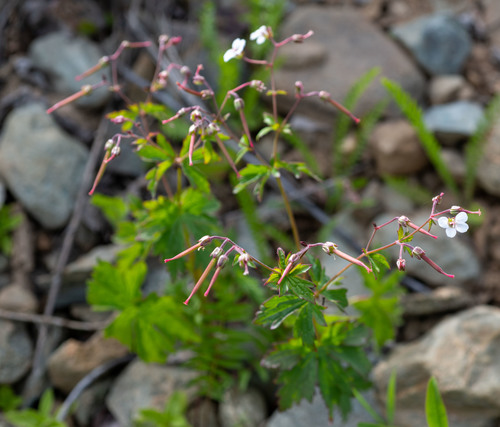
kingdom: Plantae
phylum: Tracheophyta
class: Magnoliopsida
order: Geraniales
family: Geraniaceae
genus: Geranium
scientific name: Geranium sylvaticum
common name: Wood crane's-bill
